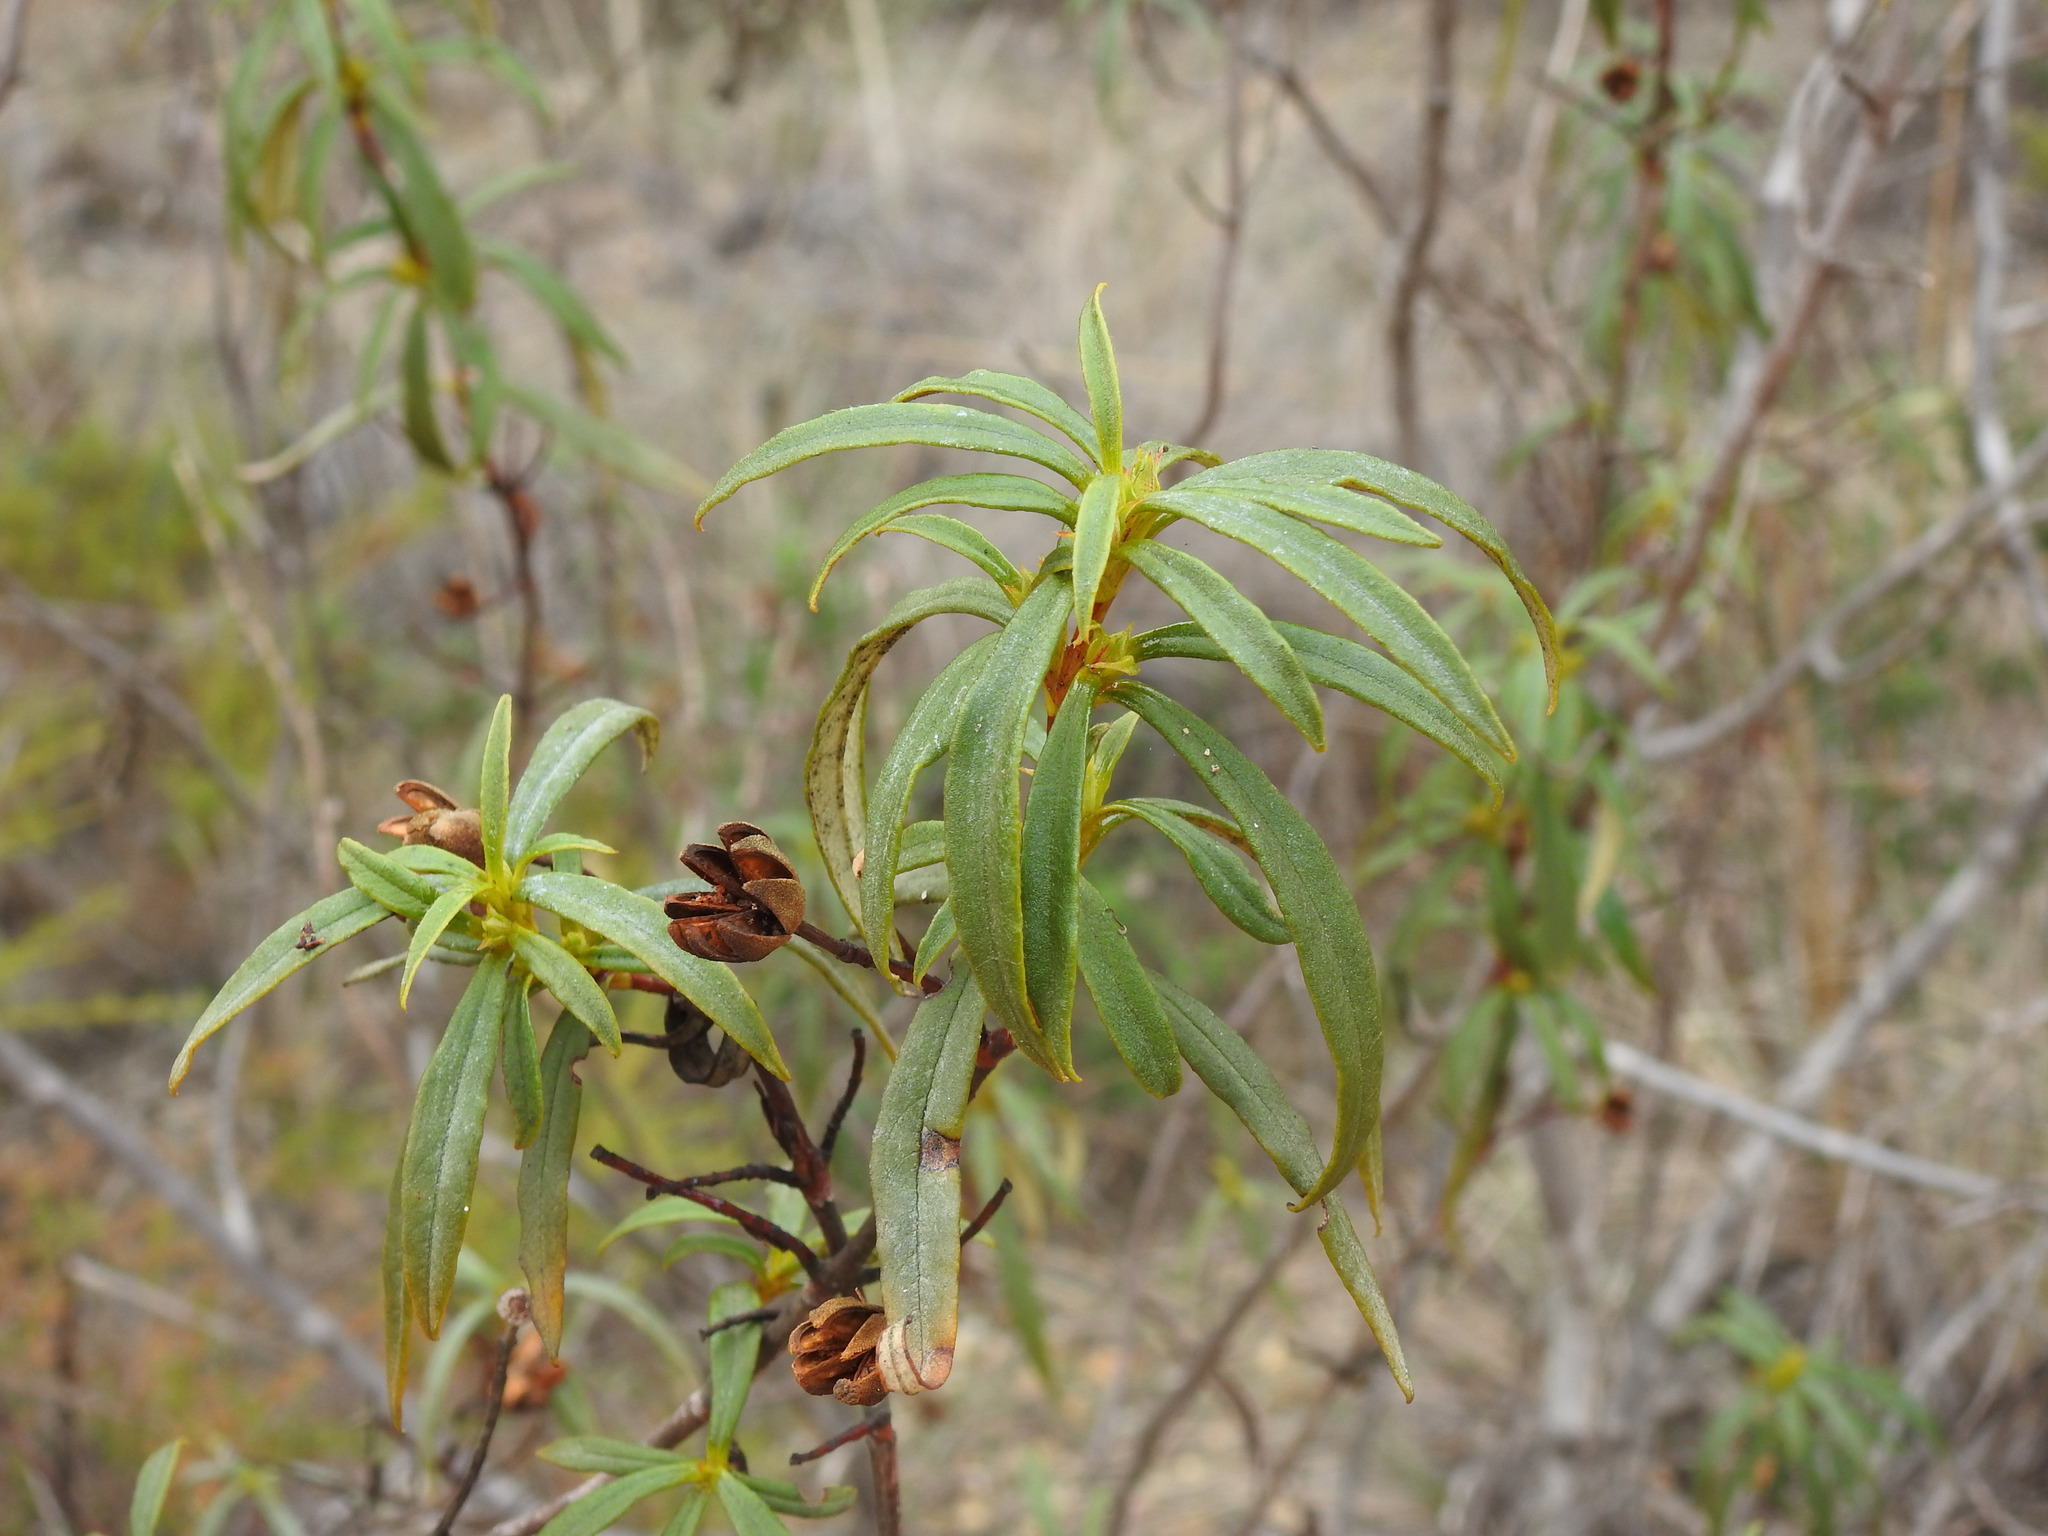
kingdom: Plantae
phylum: Tracheophyta
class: Magnoliopsida
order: Malvales
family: Cistaceae
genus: Cistus
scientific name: Cistus ladanifer
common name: Common gum cistus
